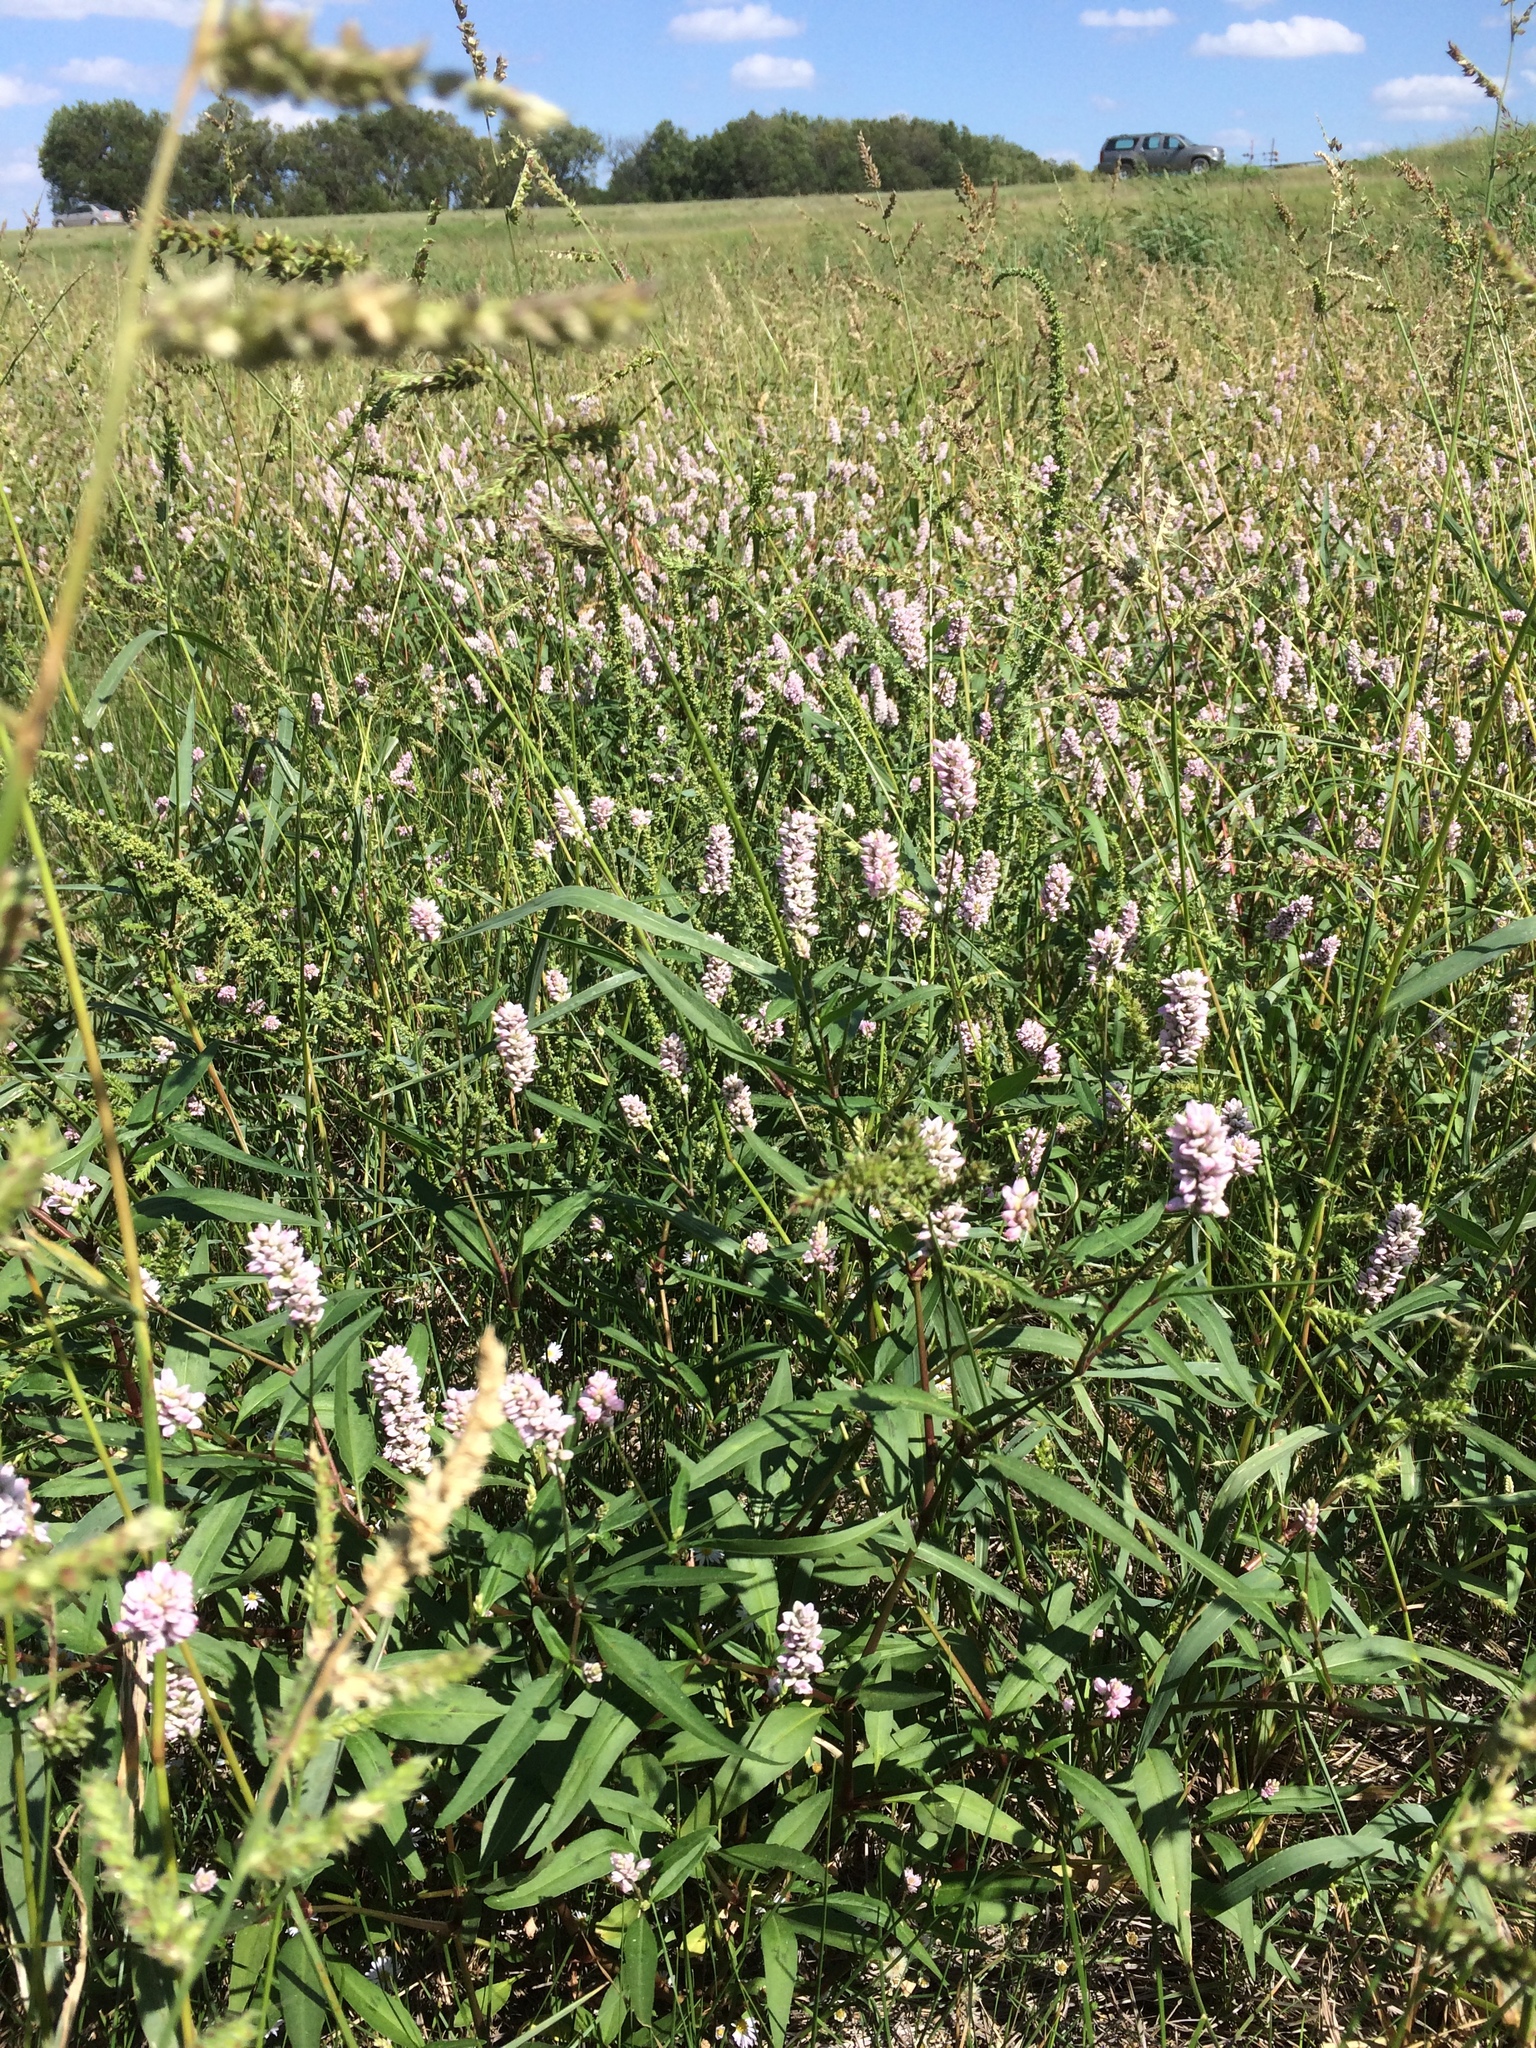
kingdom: Plantae
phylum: Tracheophyta
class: Magnoliopsida
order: Caryophyllales
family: Polygonaceae
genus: Persicaria
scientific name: Persicaria pensylvanica
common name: Pinkweed
